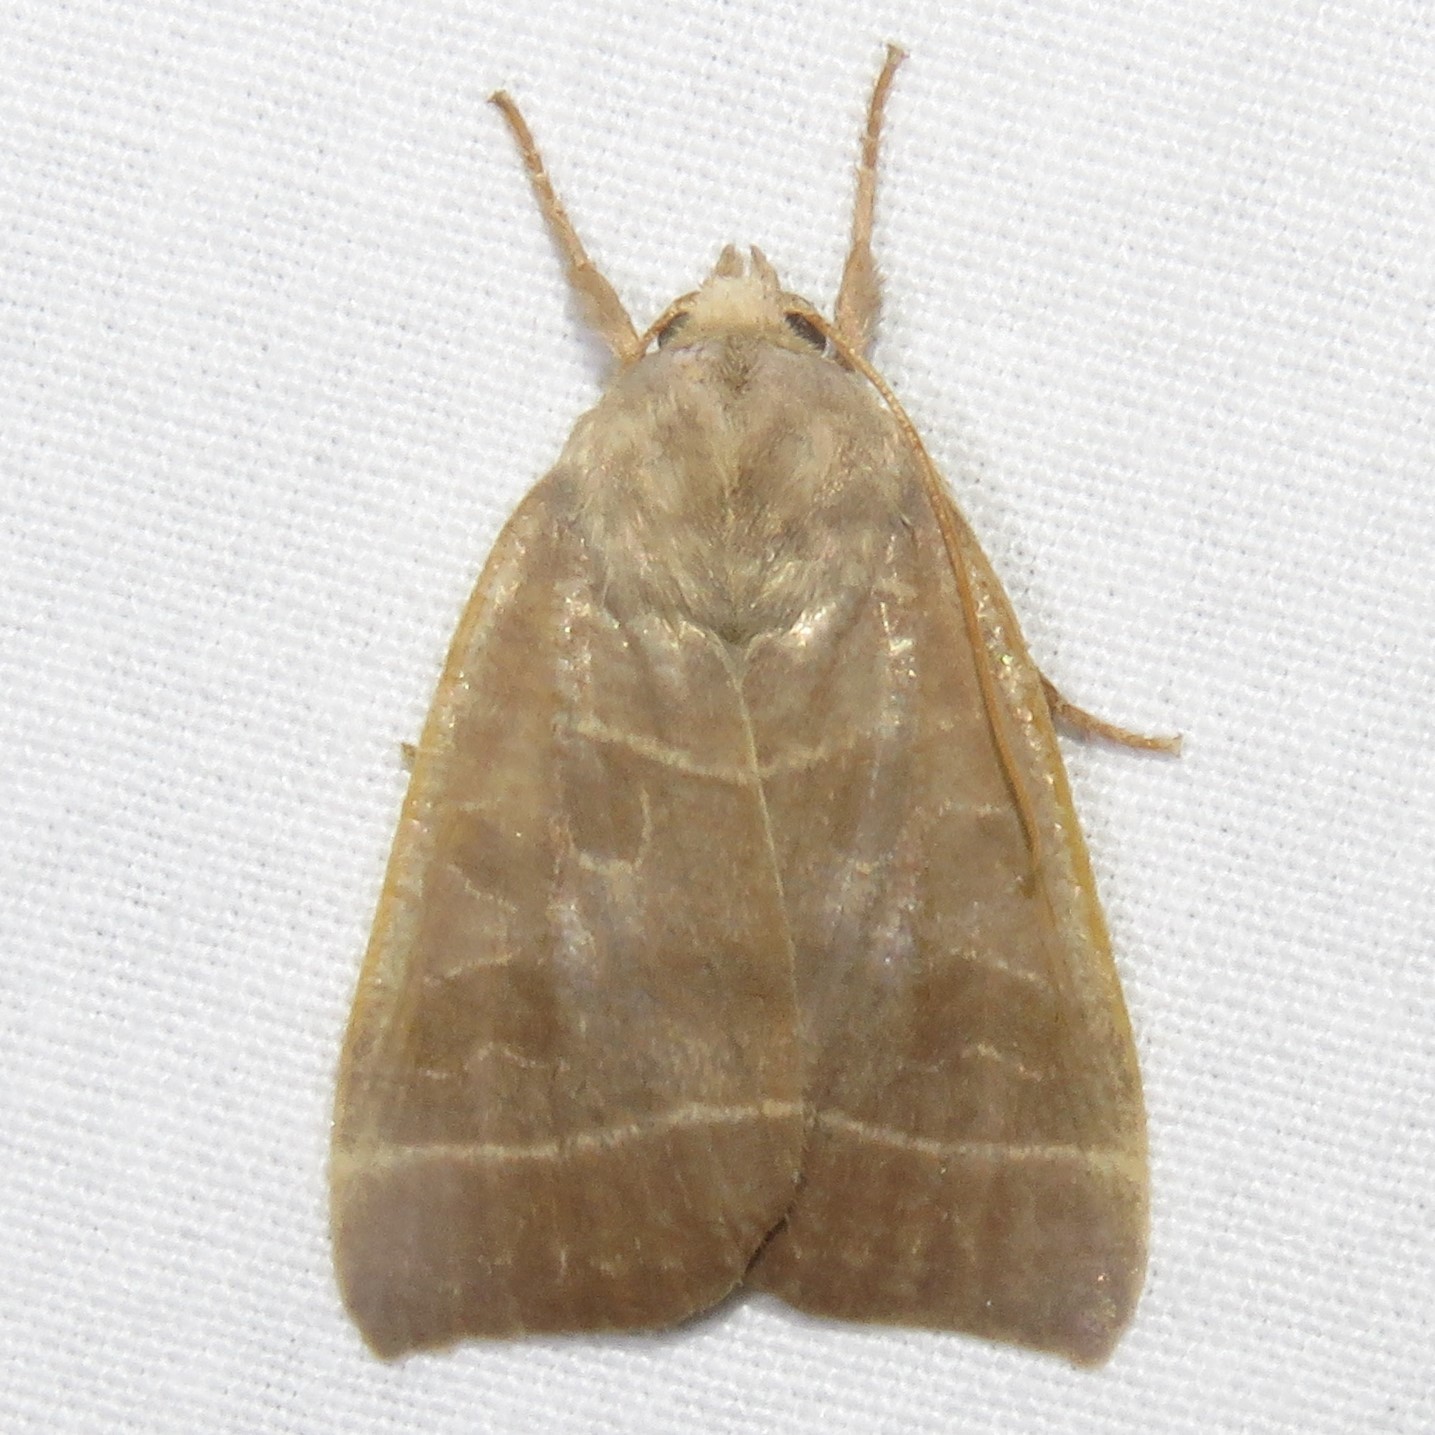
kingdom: Animalia
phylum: Arthropoda
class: Insecta
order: Lepidoptera
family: Noctuidae
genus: Ipimorpha
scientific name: Ipimorpha pleonectusa
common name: Even-lined sallow
